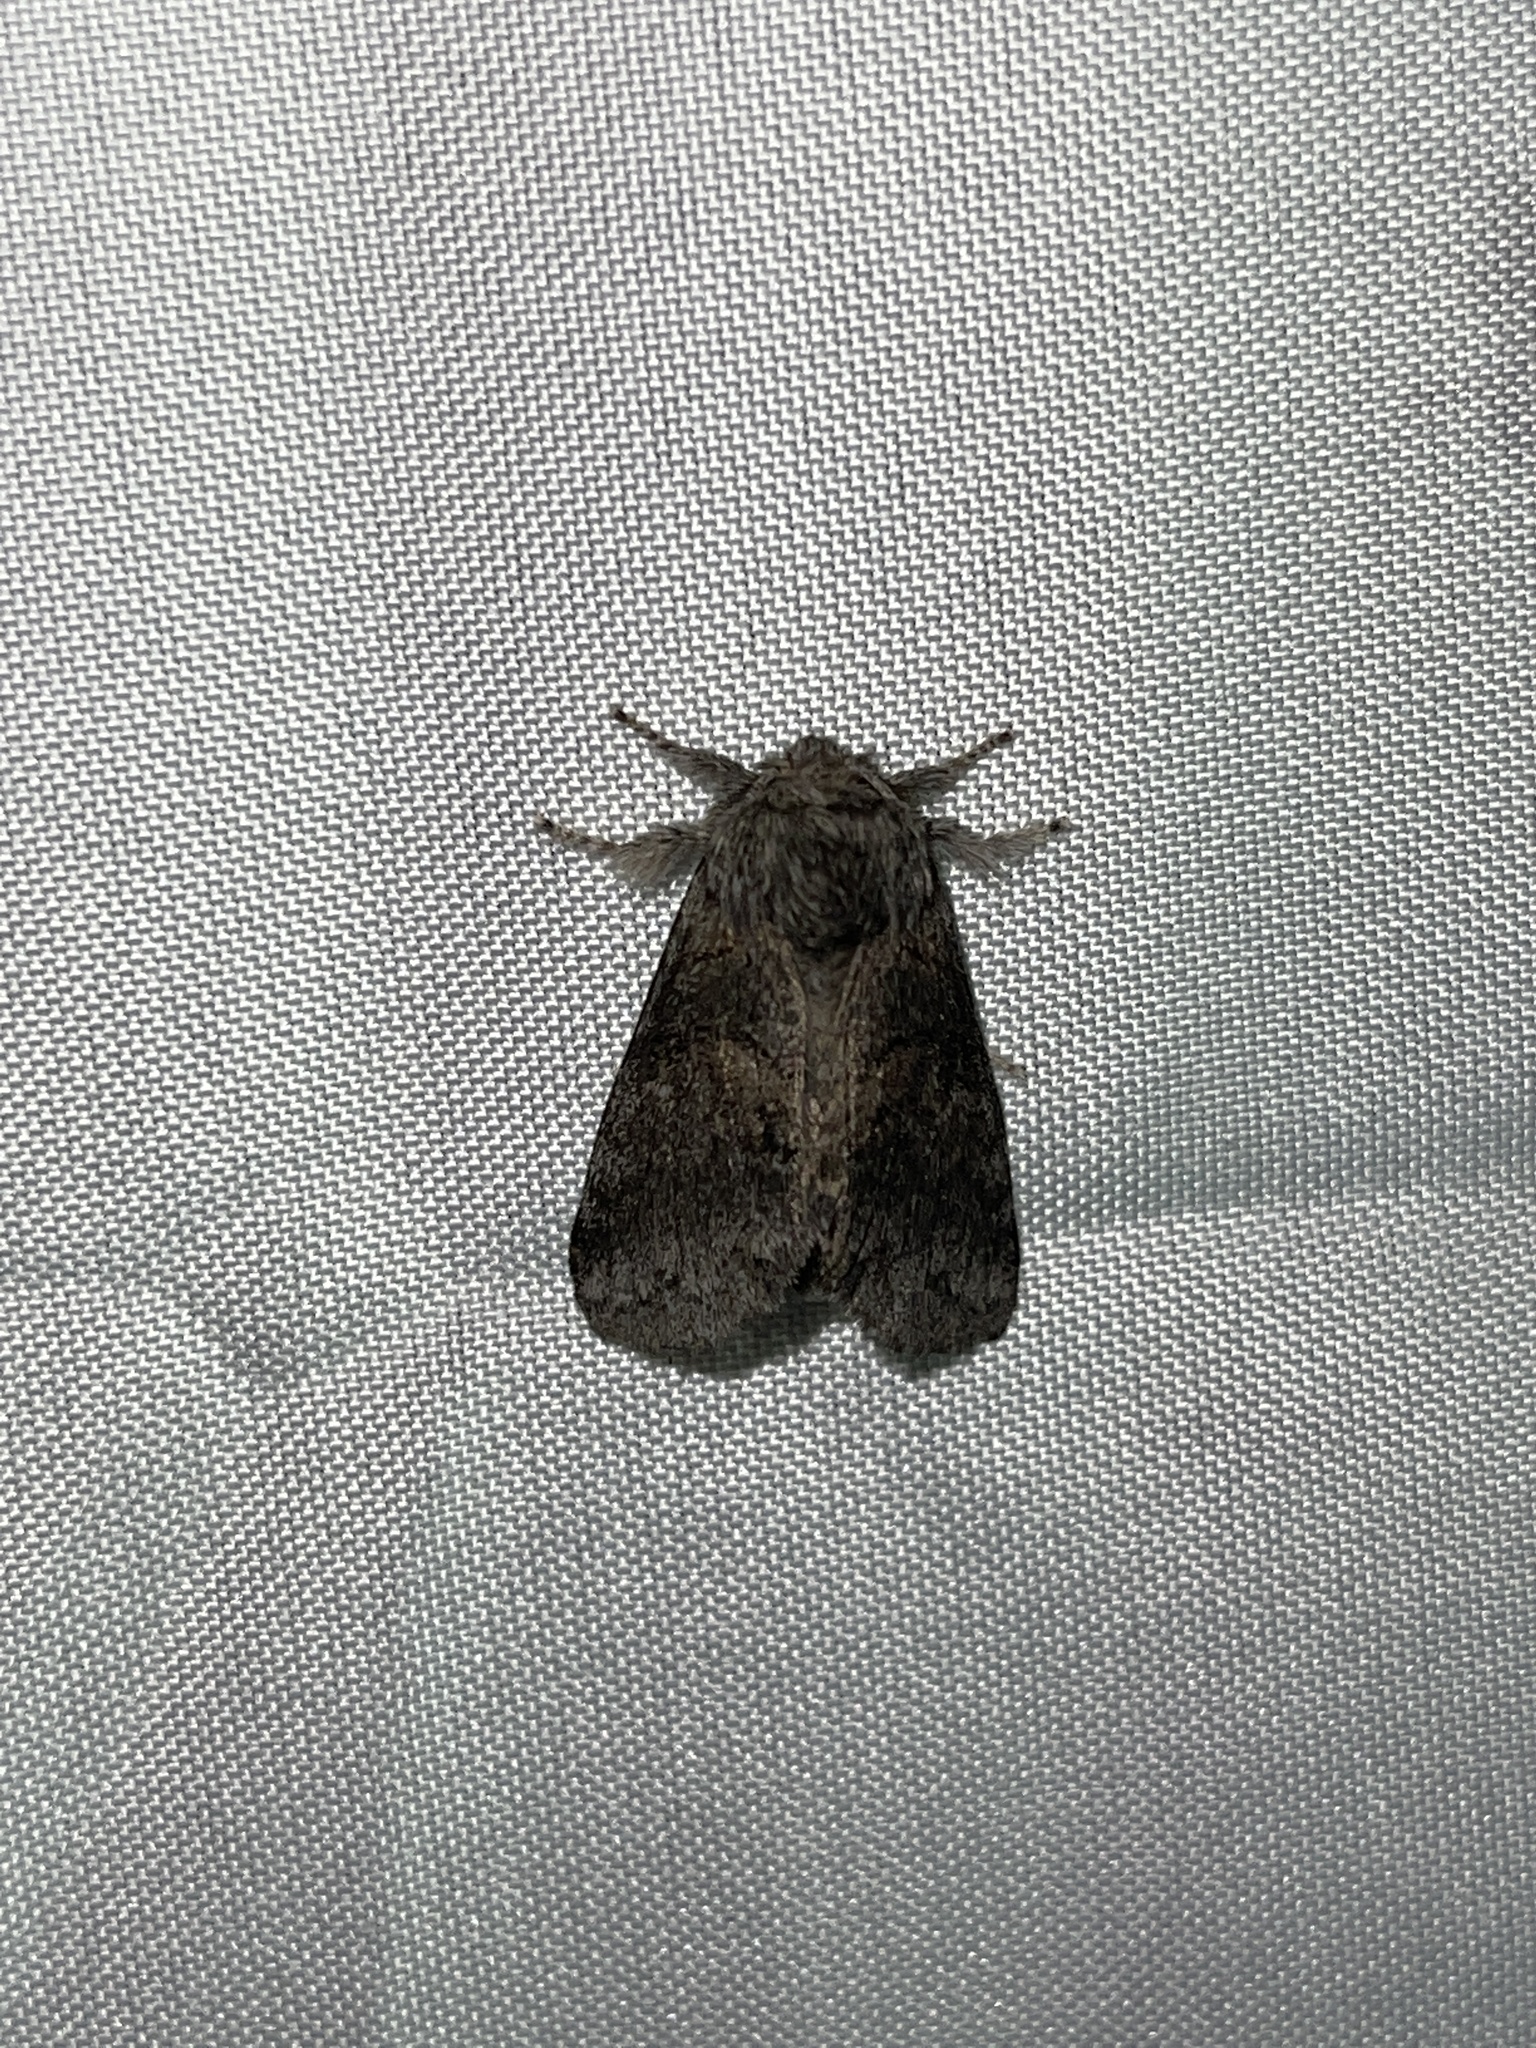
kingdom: Animalia
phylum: Arthropoda
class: Insecta
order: Lepidoptera
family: Notodontidae
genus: Gluphisia
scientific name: Gluphisia septentrionis
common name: Common gluphisia
